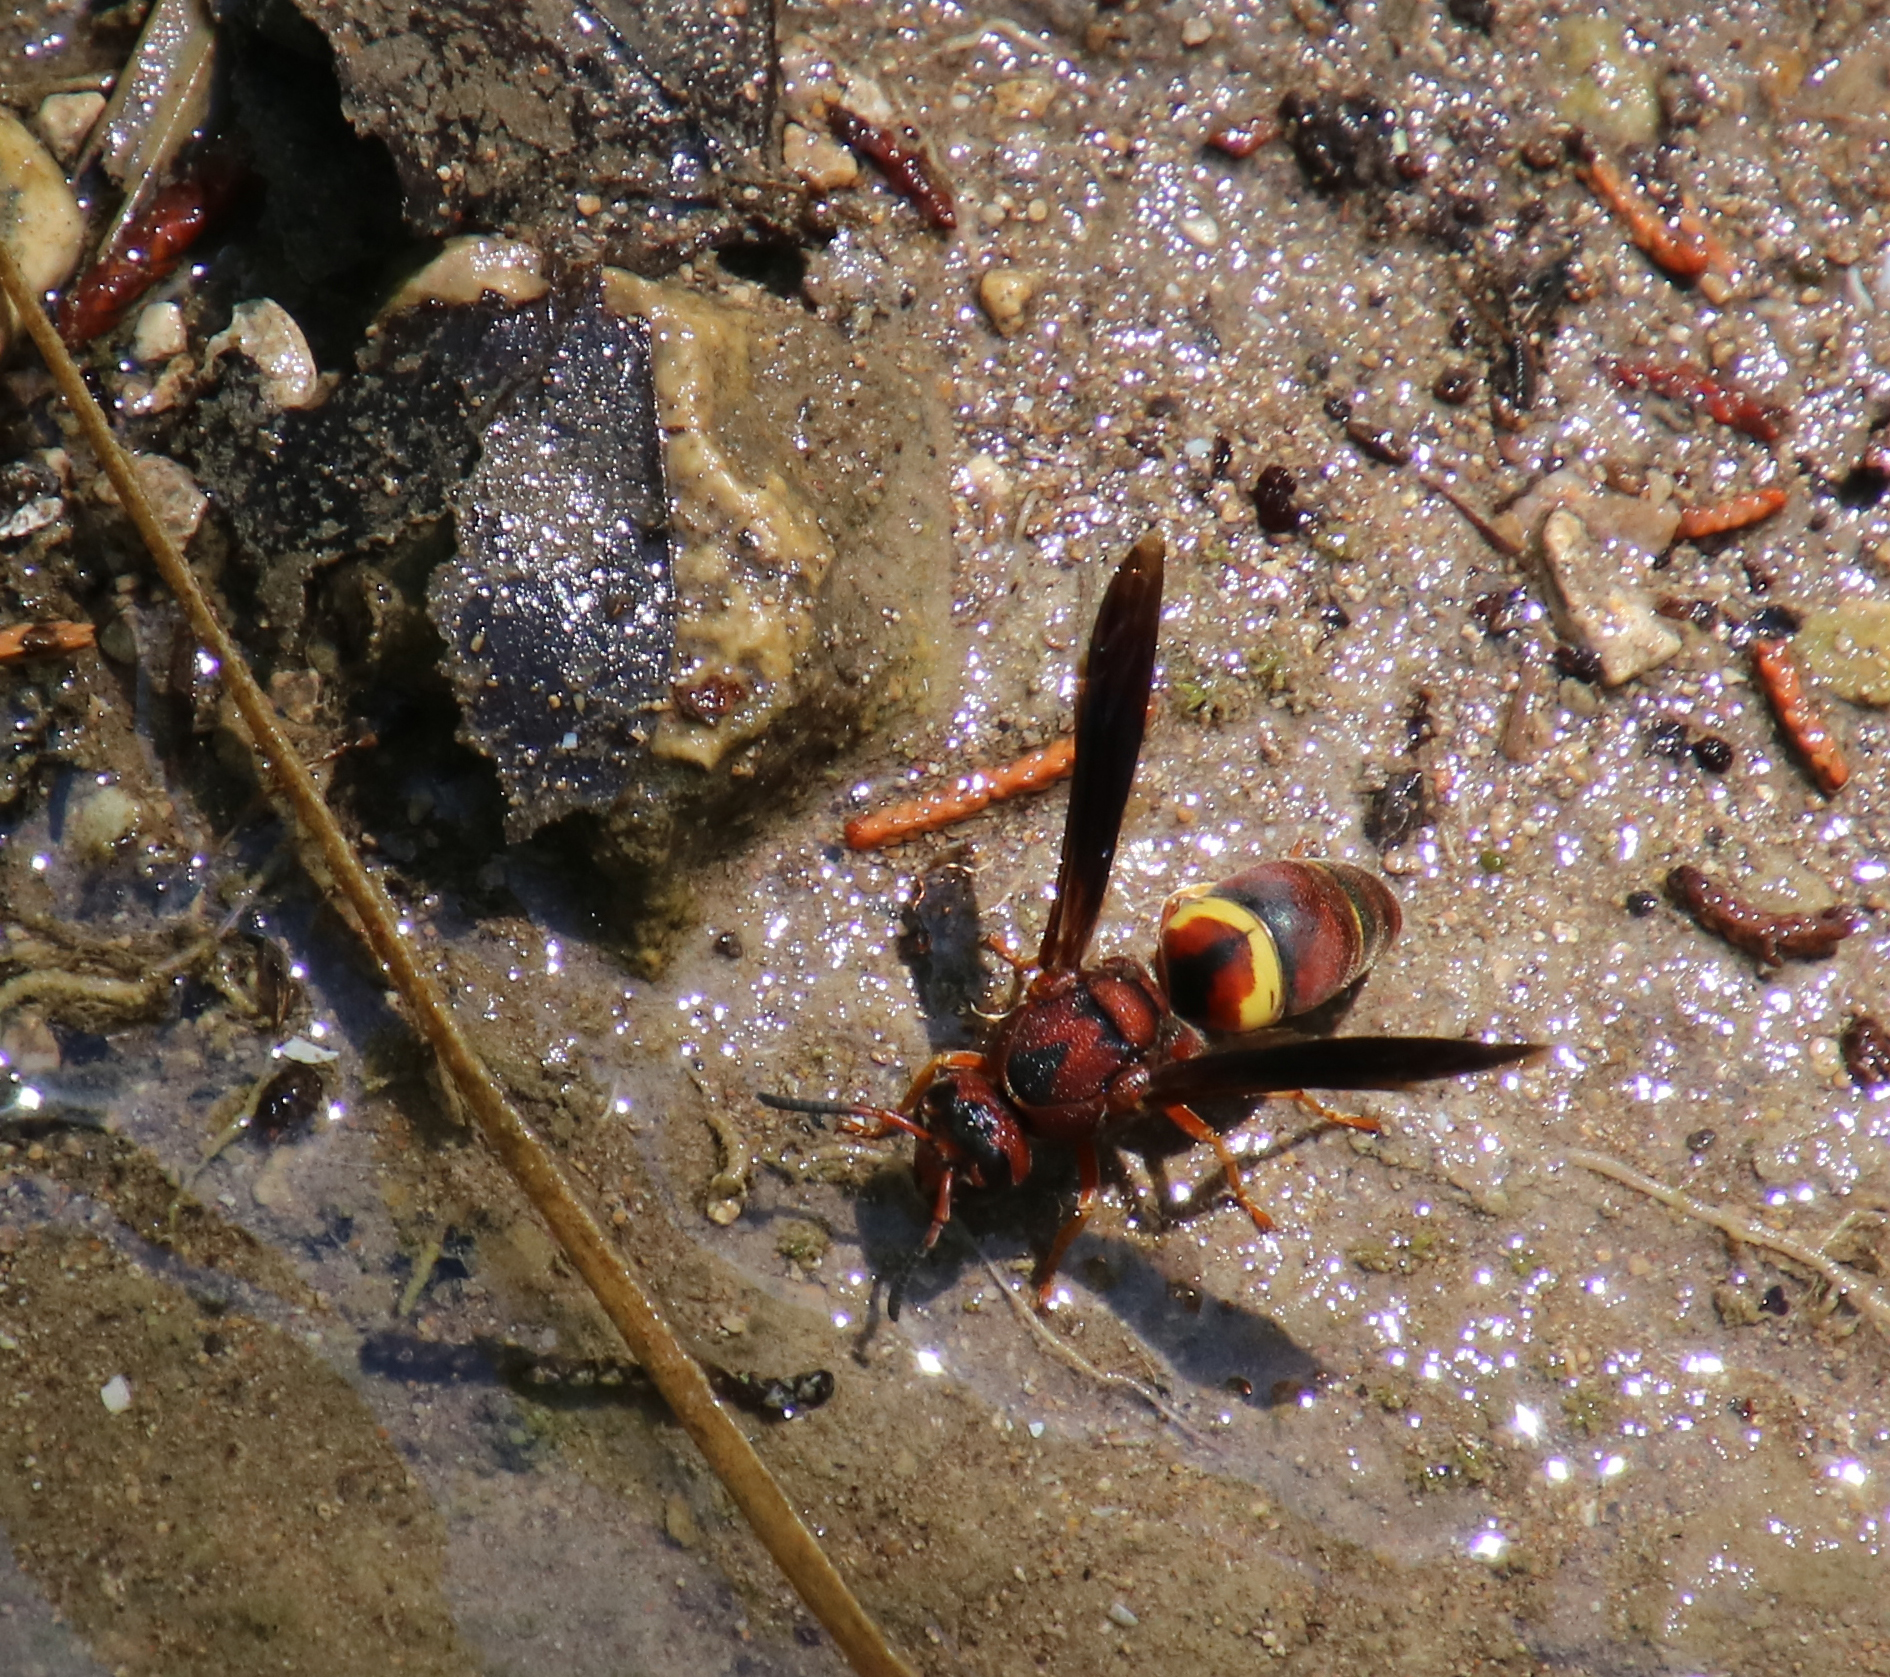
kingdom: Animalia
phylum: Arthropoda
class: Insecta
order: Hymenoptera
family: Eumenidae
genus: Euodynerus
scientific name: Euodynerus crypticus
